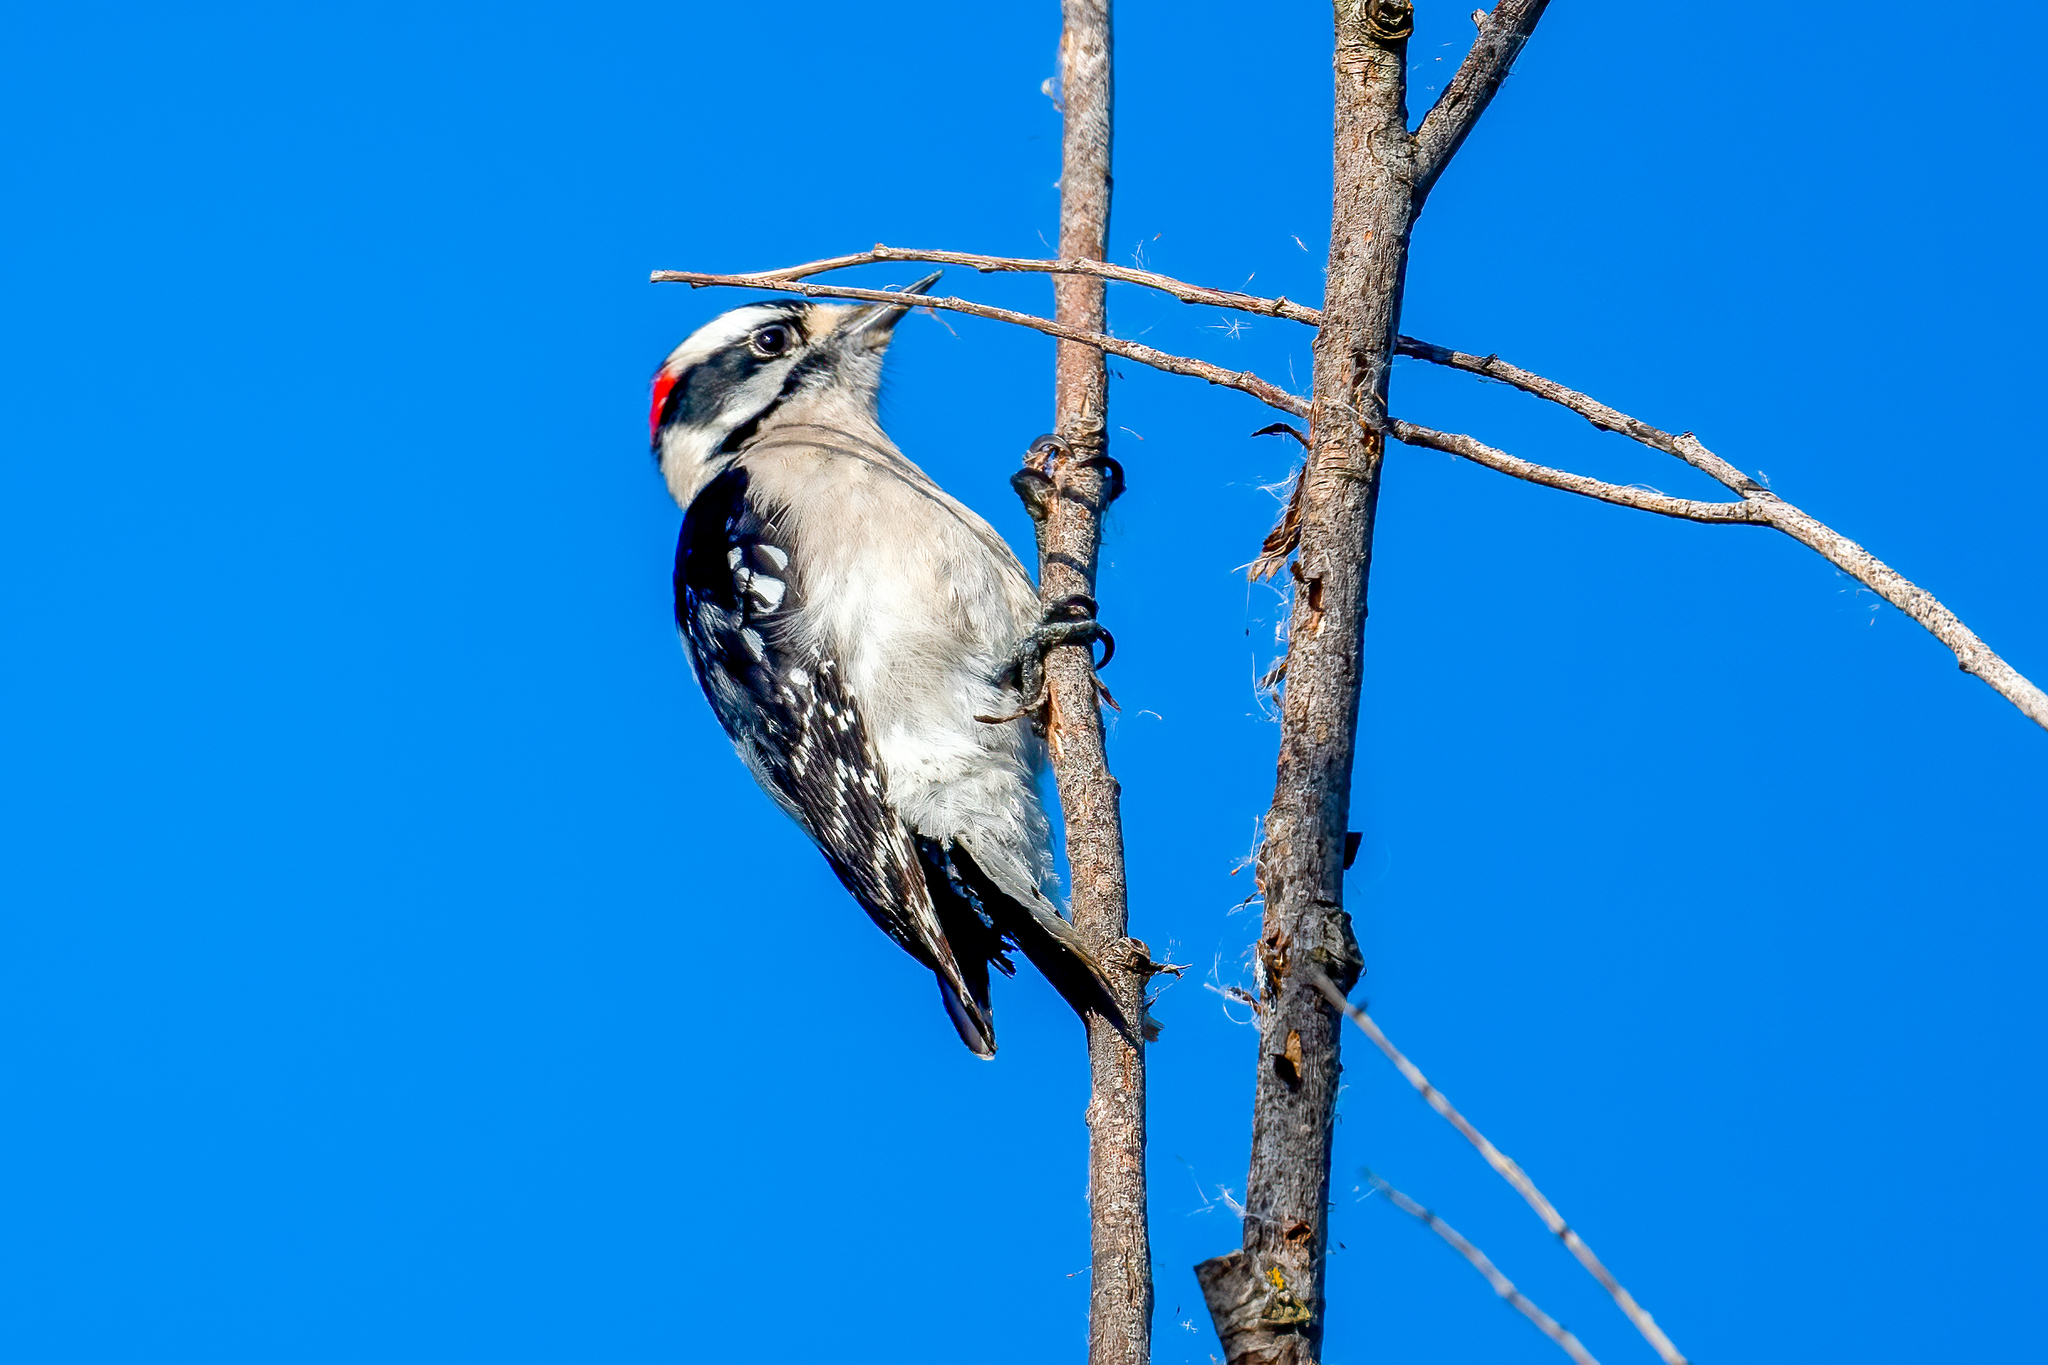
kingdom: Animalia
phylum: Chordata
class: Aves
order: Piciformes
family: Picidae
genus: Dryobates
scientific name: Dryobates pubescens
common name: Downy woodpecker
